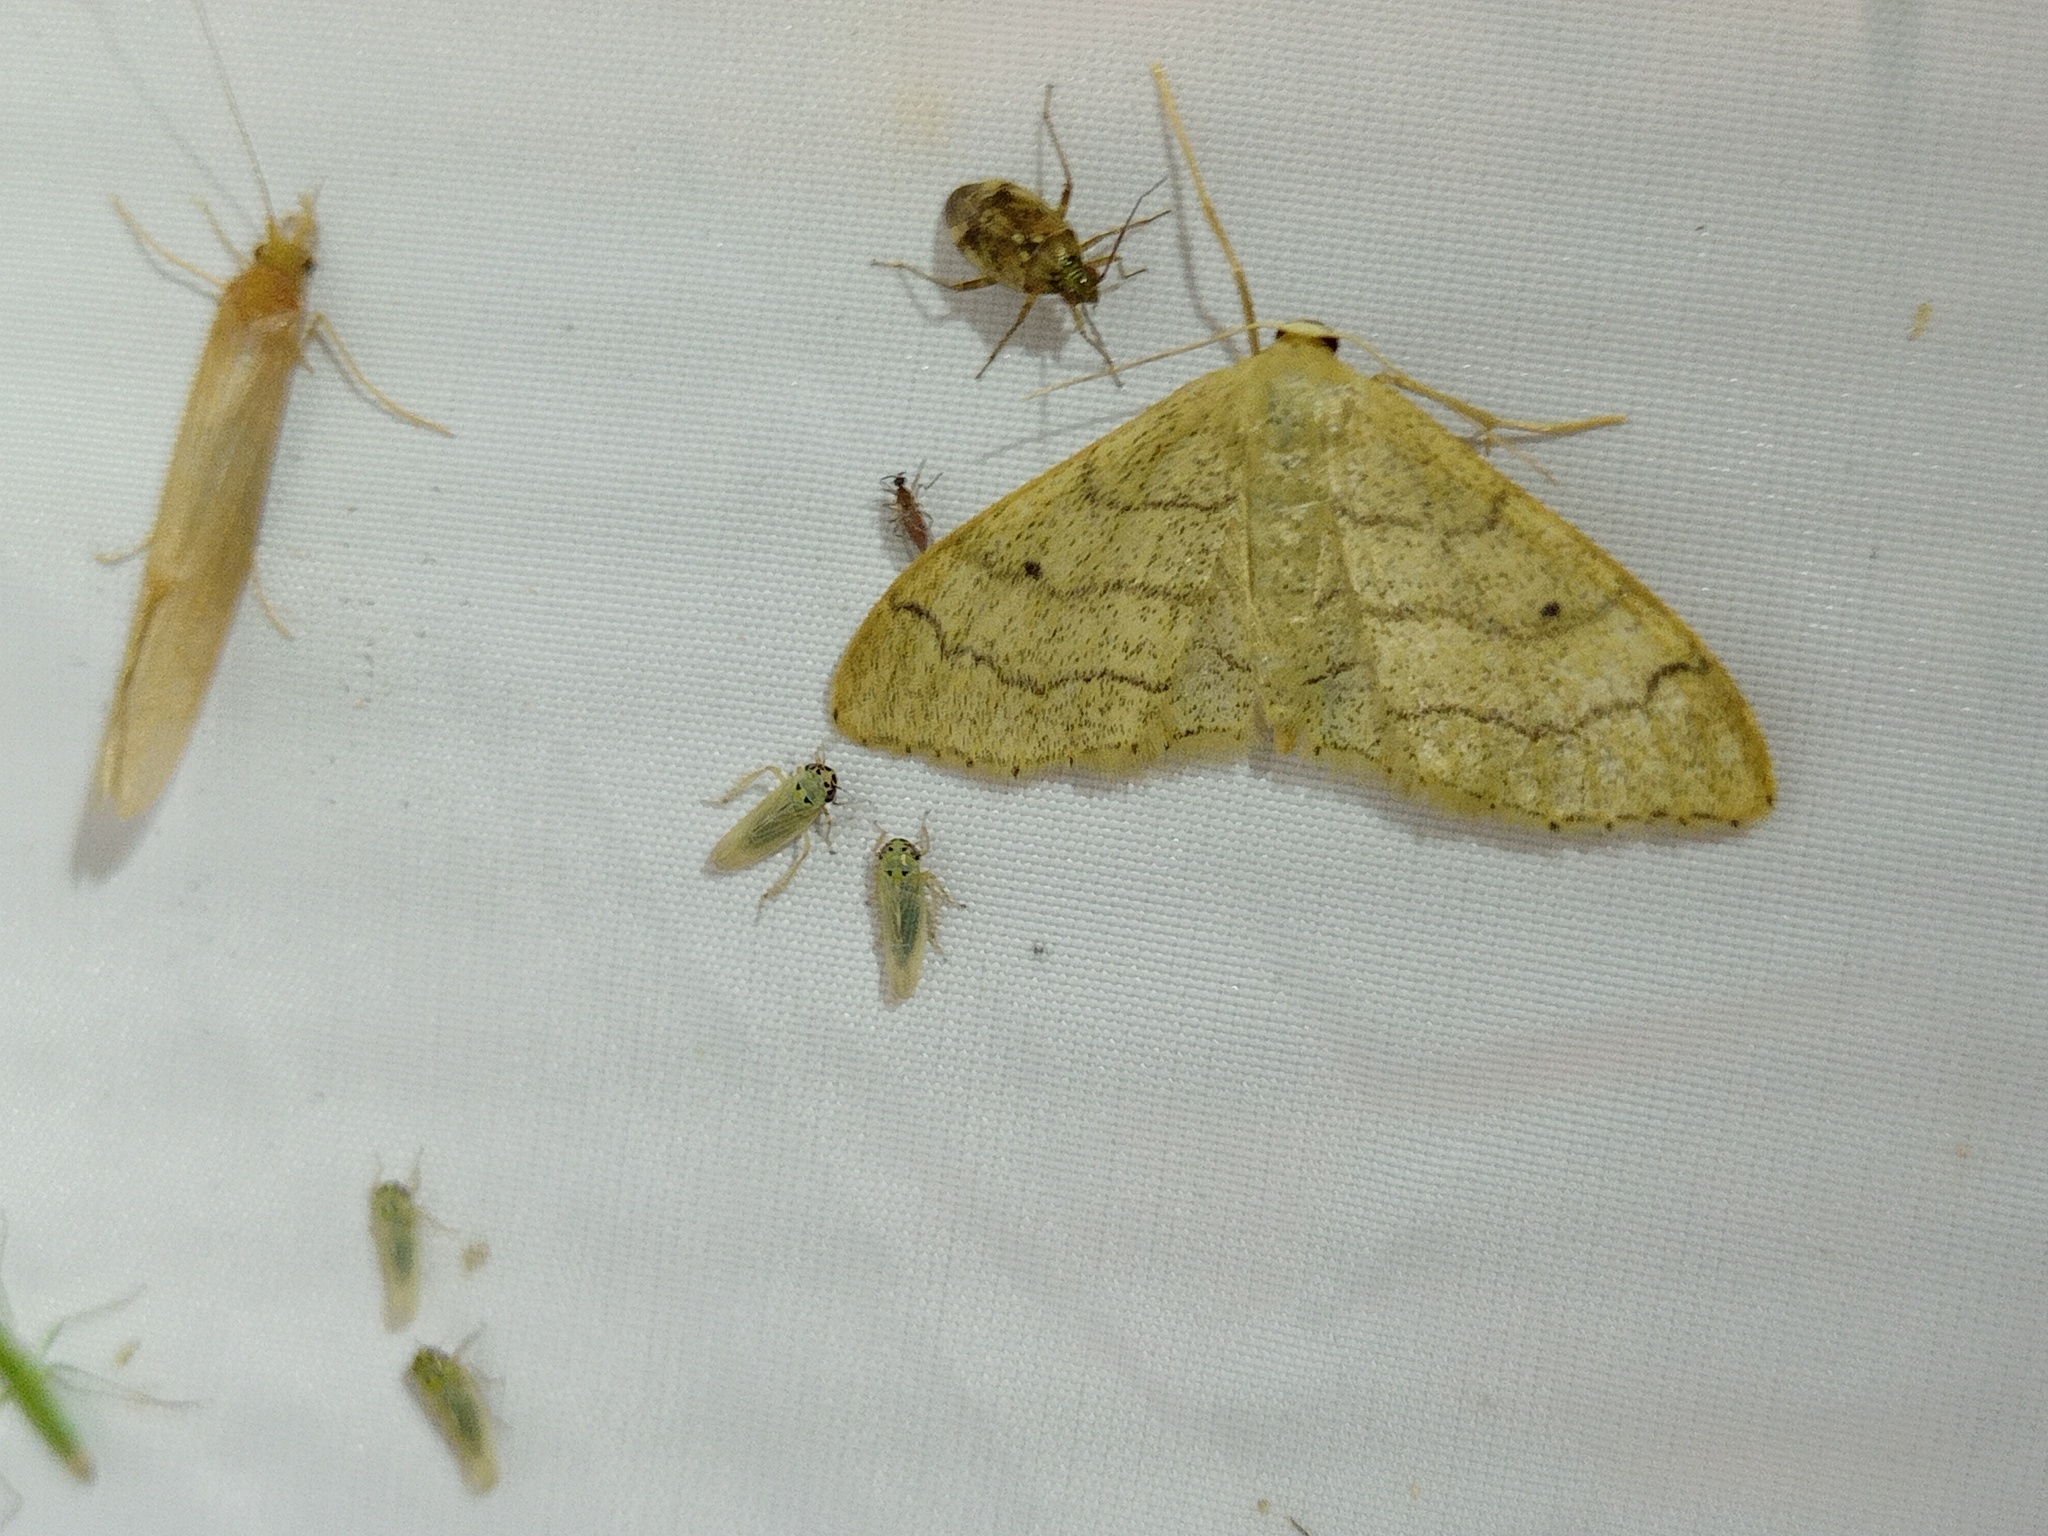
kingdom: Animalia
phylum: Arthropoda
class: Insecta
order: Lepidoptera
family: Geometridae
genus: Idaea
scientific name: Idaea aversata
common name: Riband wave
